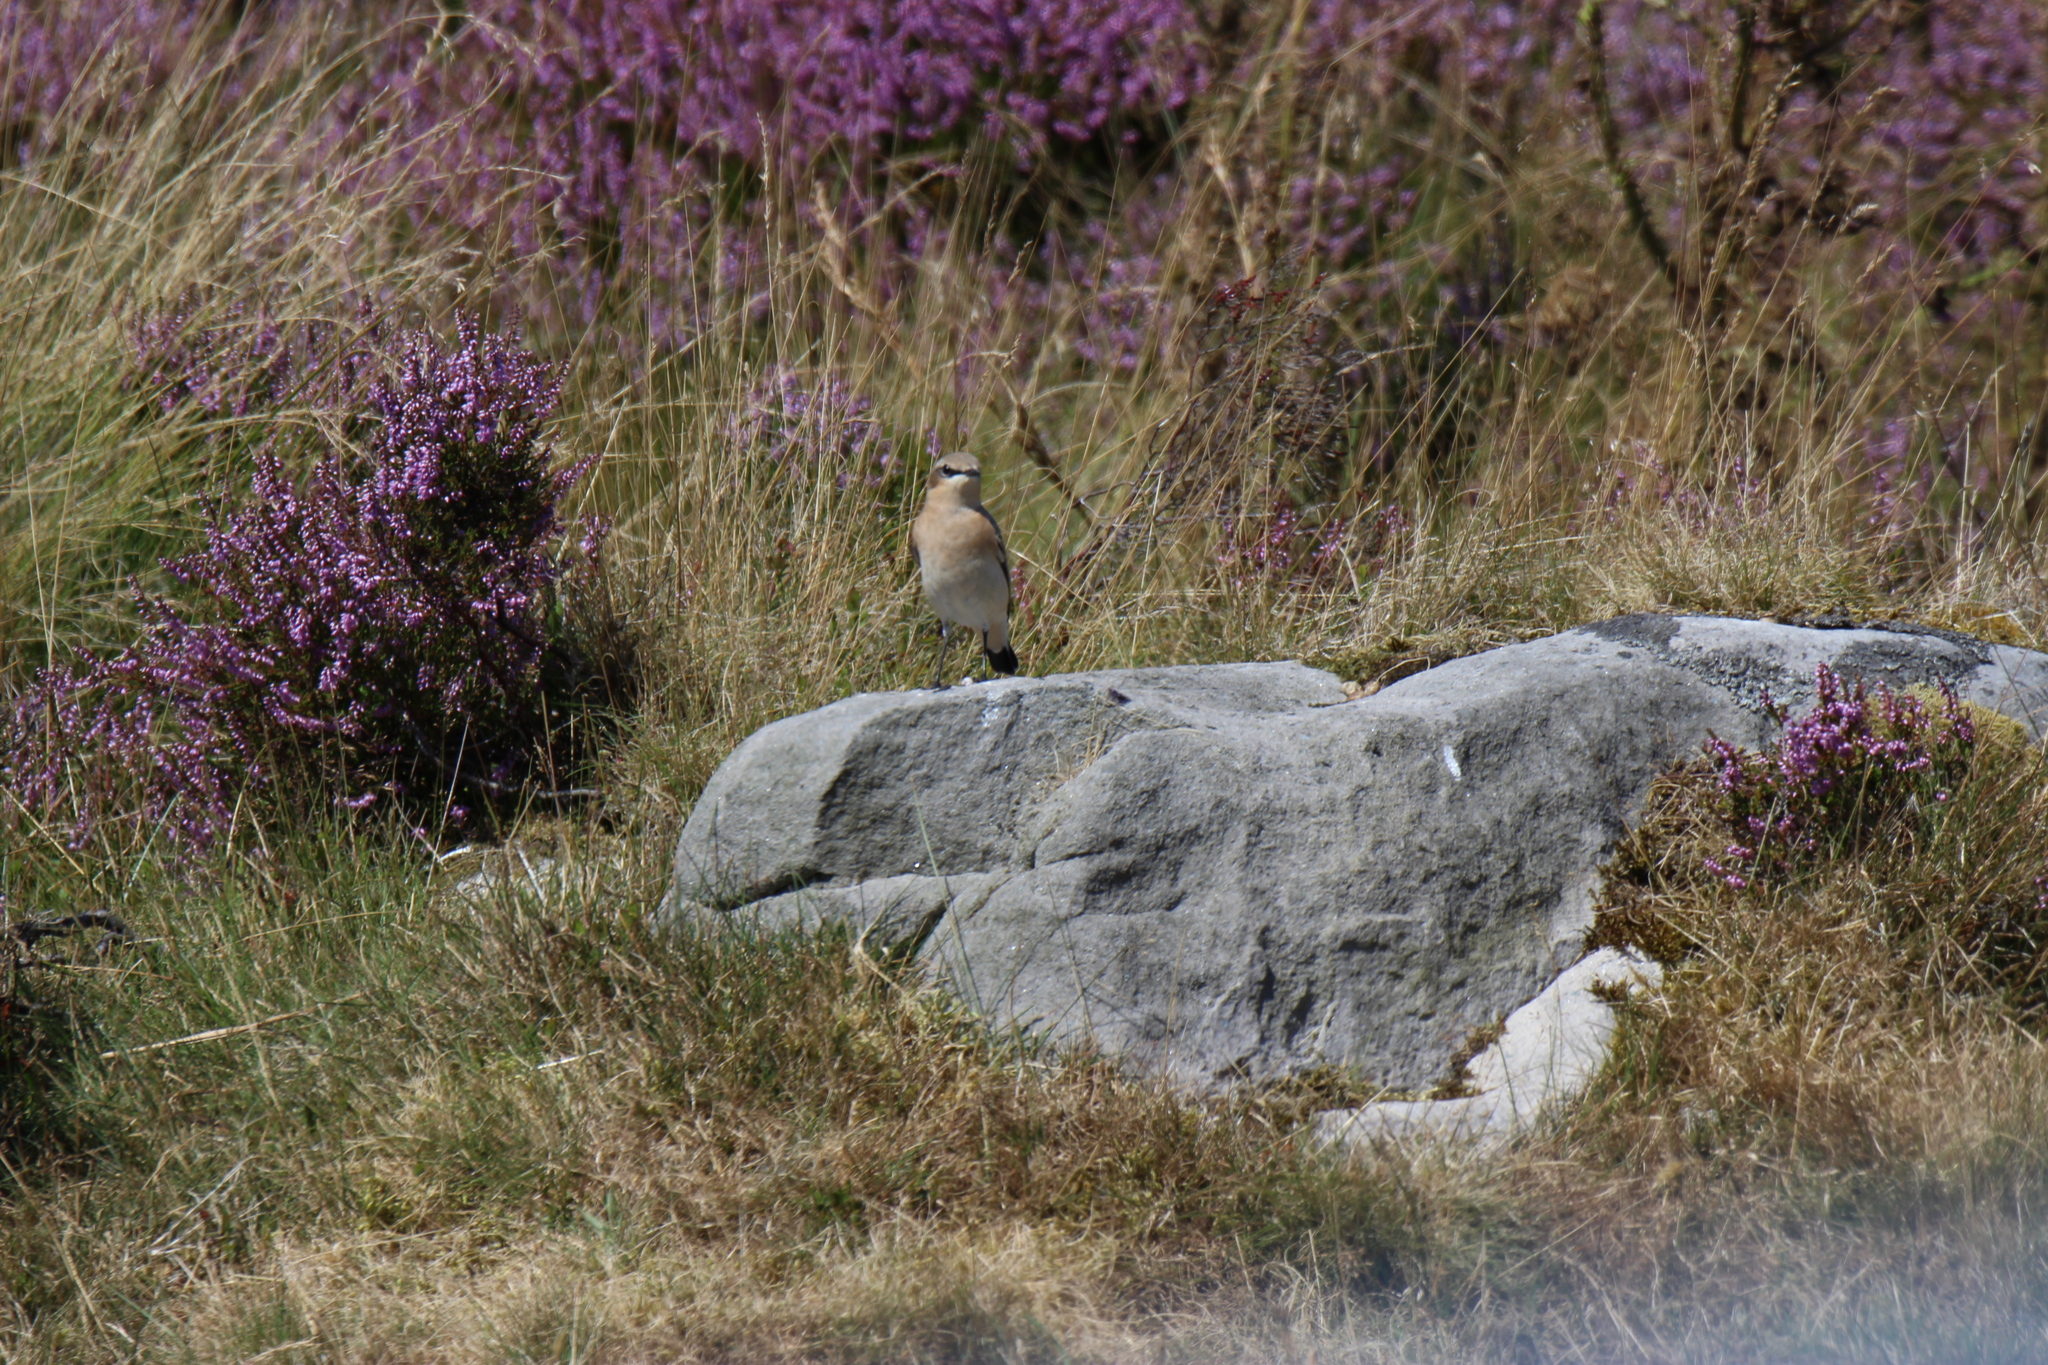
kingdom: Animalia
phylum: Chordata
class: Aves
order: Passeriformes
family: Muscicapidae
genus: Oenanthe
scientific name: Oenanthe oenanthe
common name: Northern wheatear
